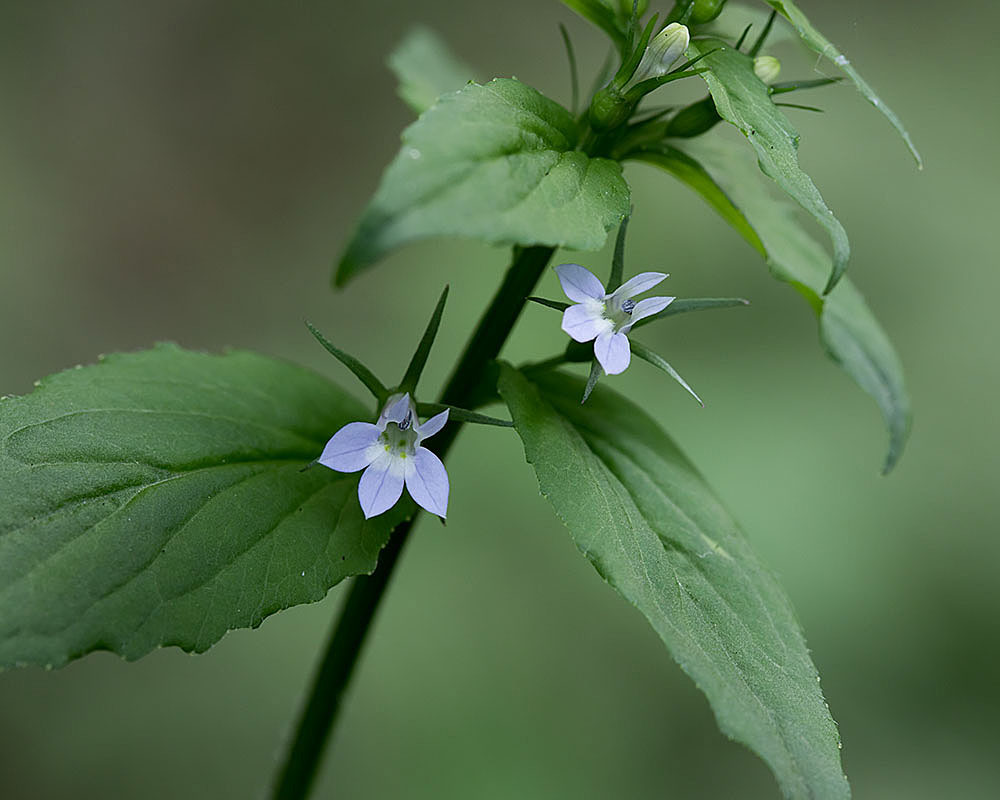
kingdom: Plantae
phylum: Tracheophyta
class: Magnoliopsida
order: Asterales
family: Campanulaceae
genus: Lobelia
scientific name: Lobelia inflata
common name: Indian tobacco
